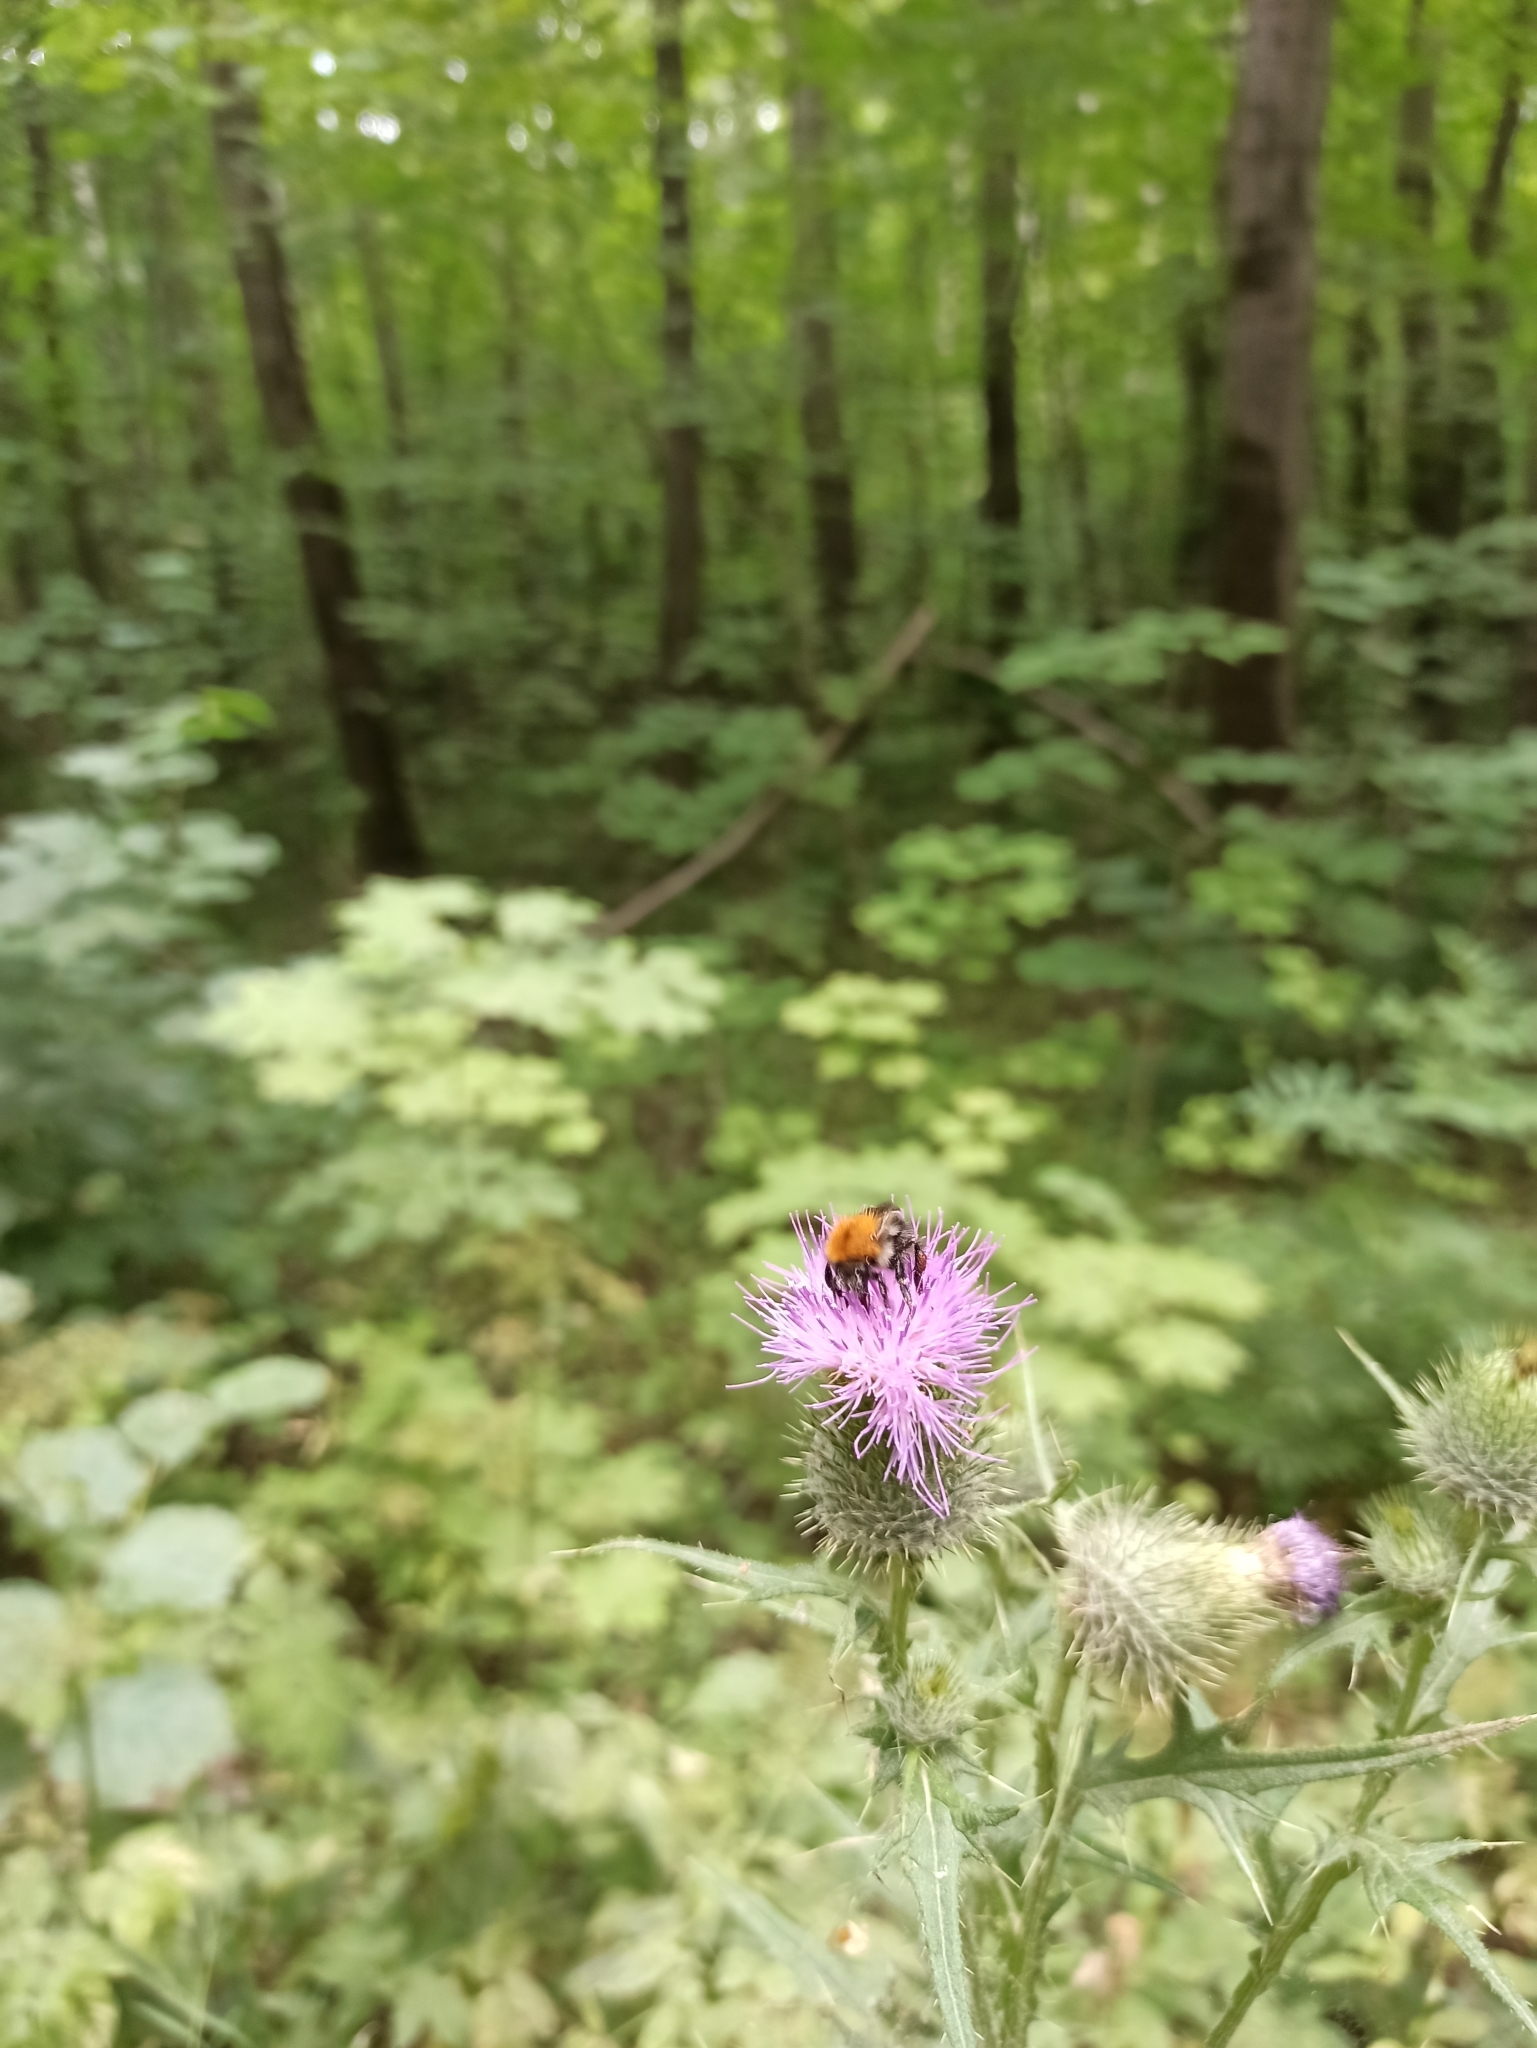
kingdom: Animalia
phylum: Arthropoda
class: Insecta
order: Hymenoptera
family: Apidae
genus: Bombus
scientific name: Bombus pascuorum
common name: Common carder bee
